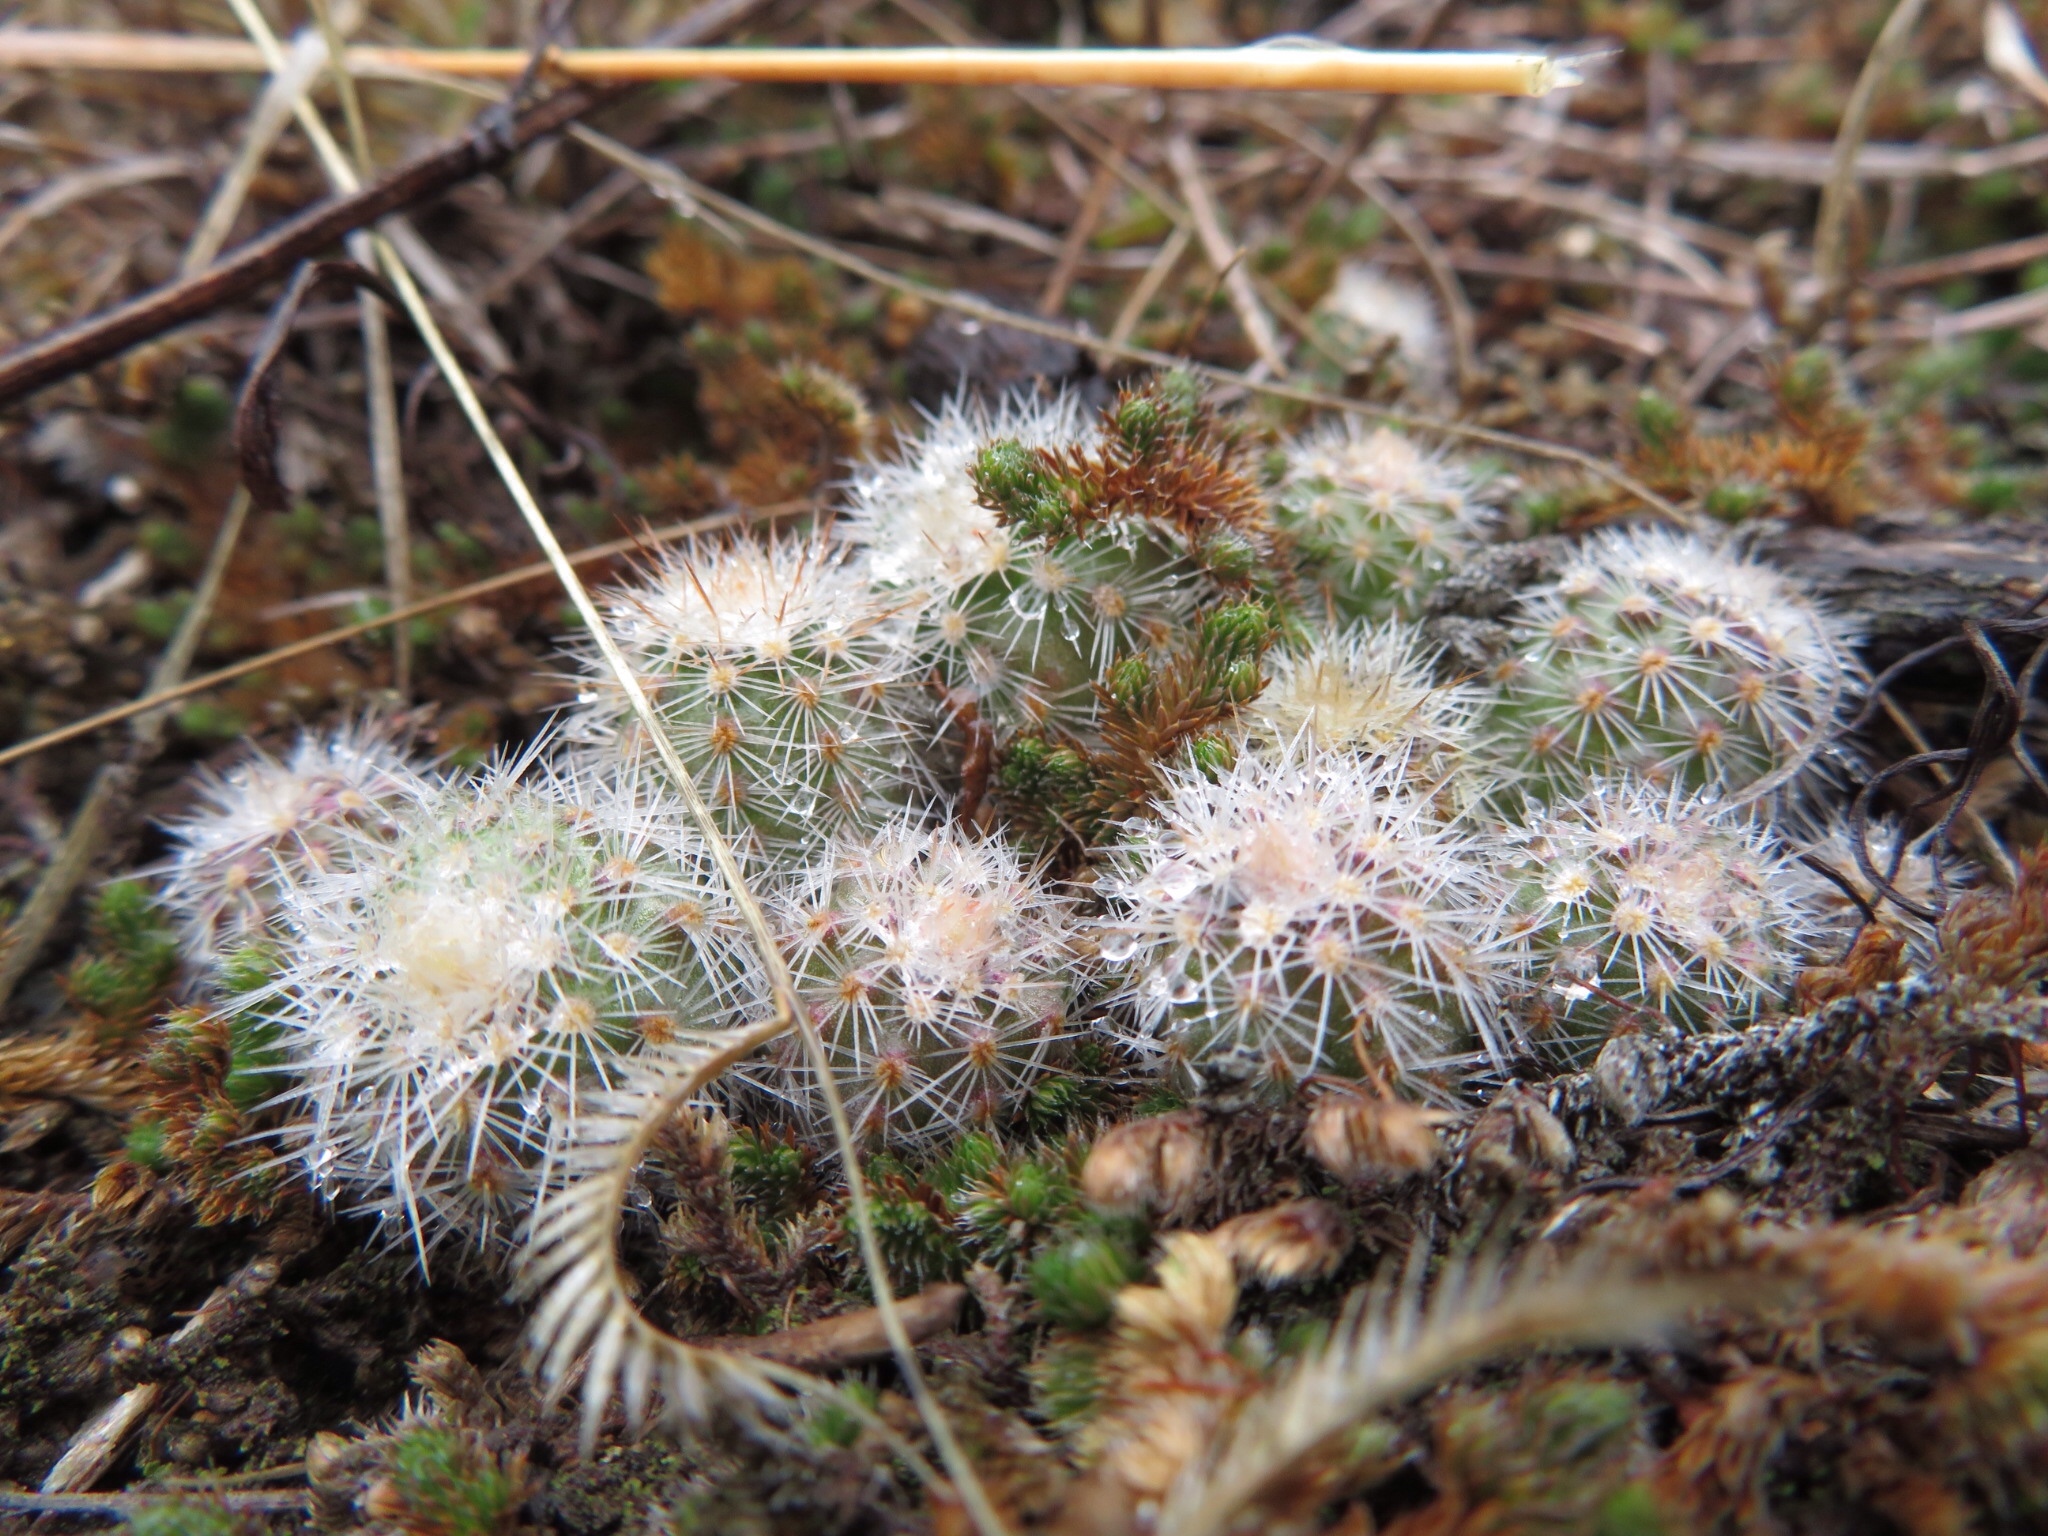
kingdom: Plantae
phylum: Tracheophyta
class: Magnoliopsida
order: Caryophyllales
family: Cactaceae
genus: Echinocereus
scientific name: Echinocereus reichenbachii
